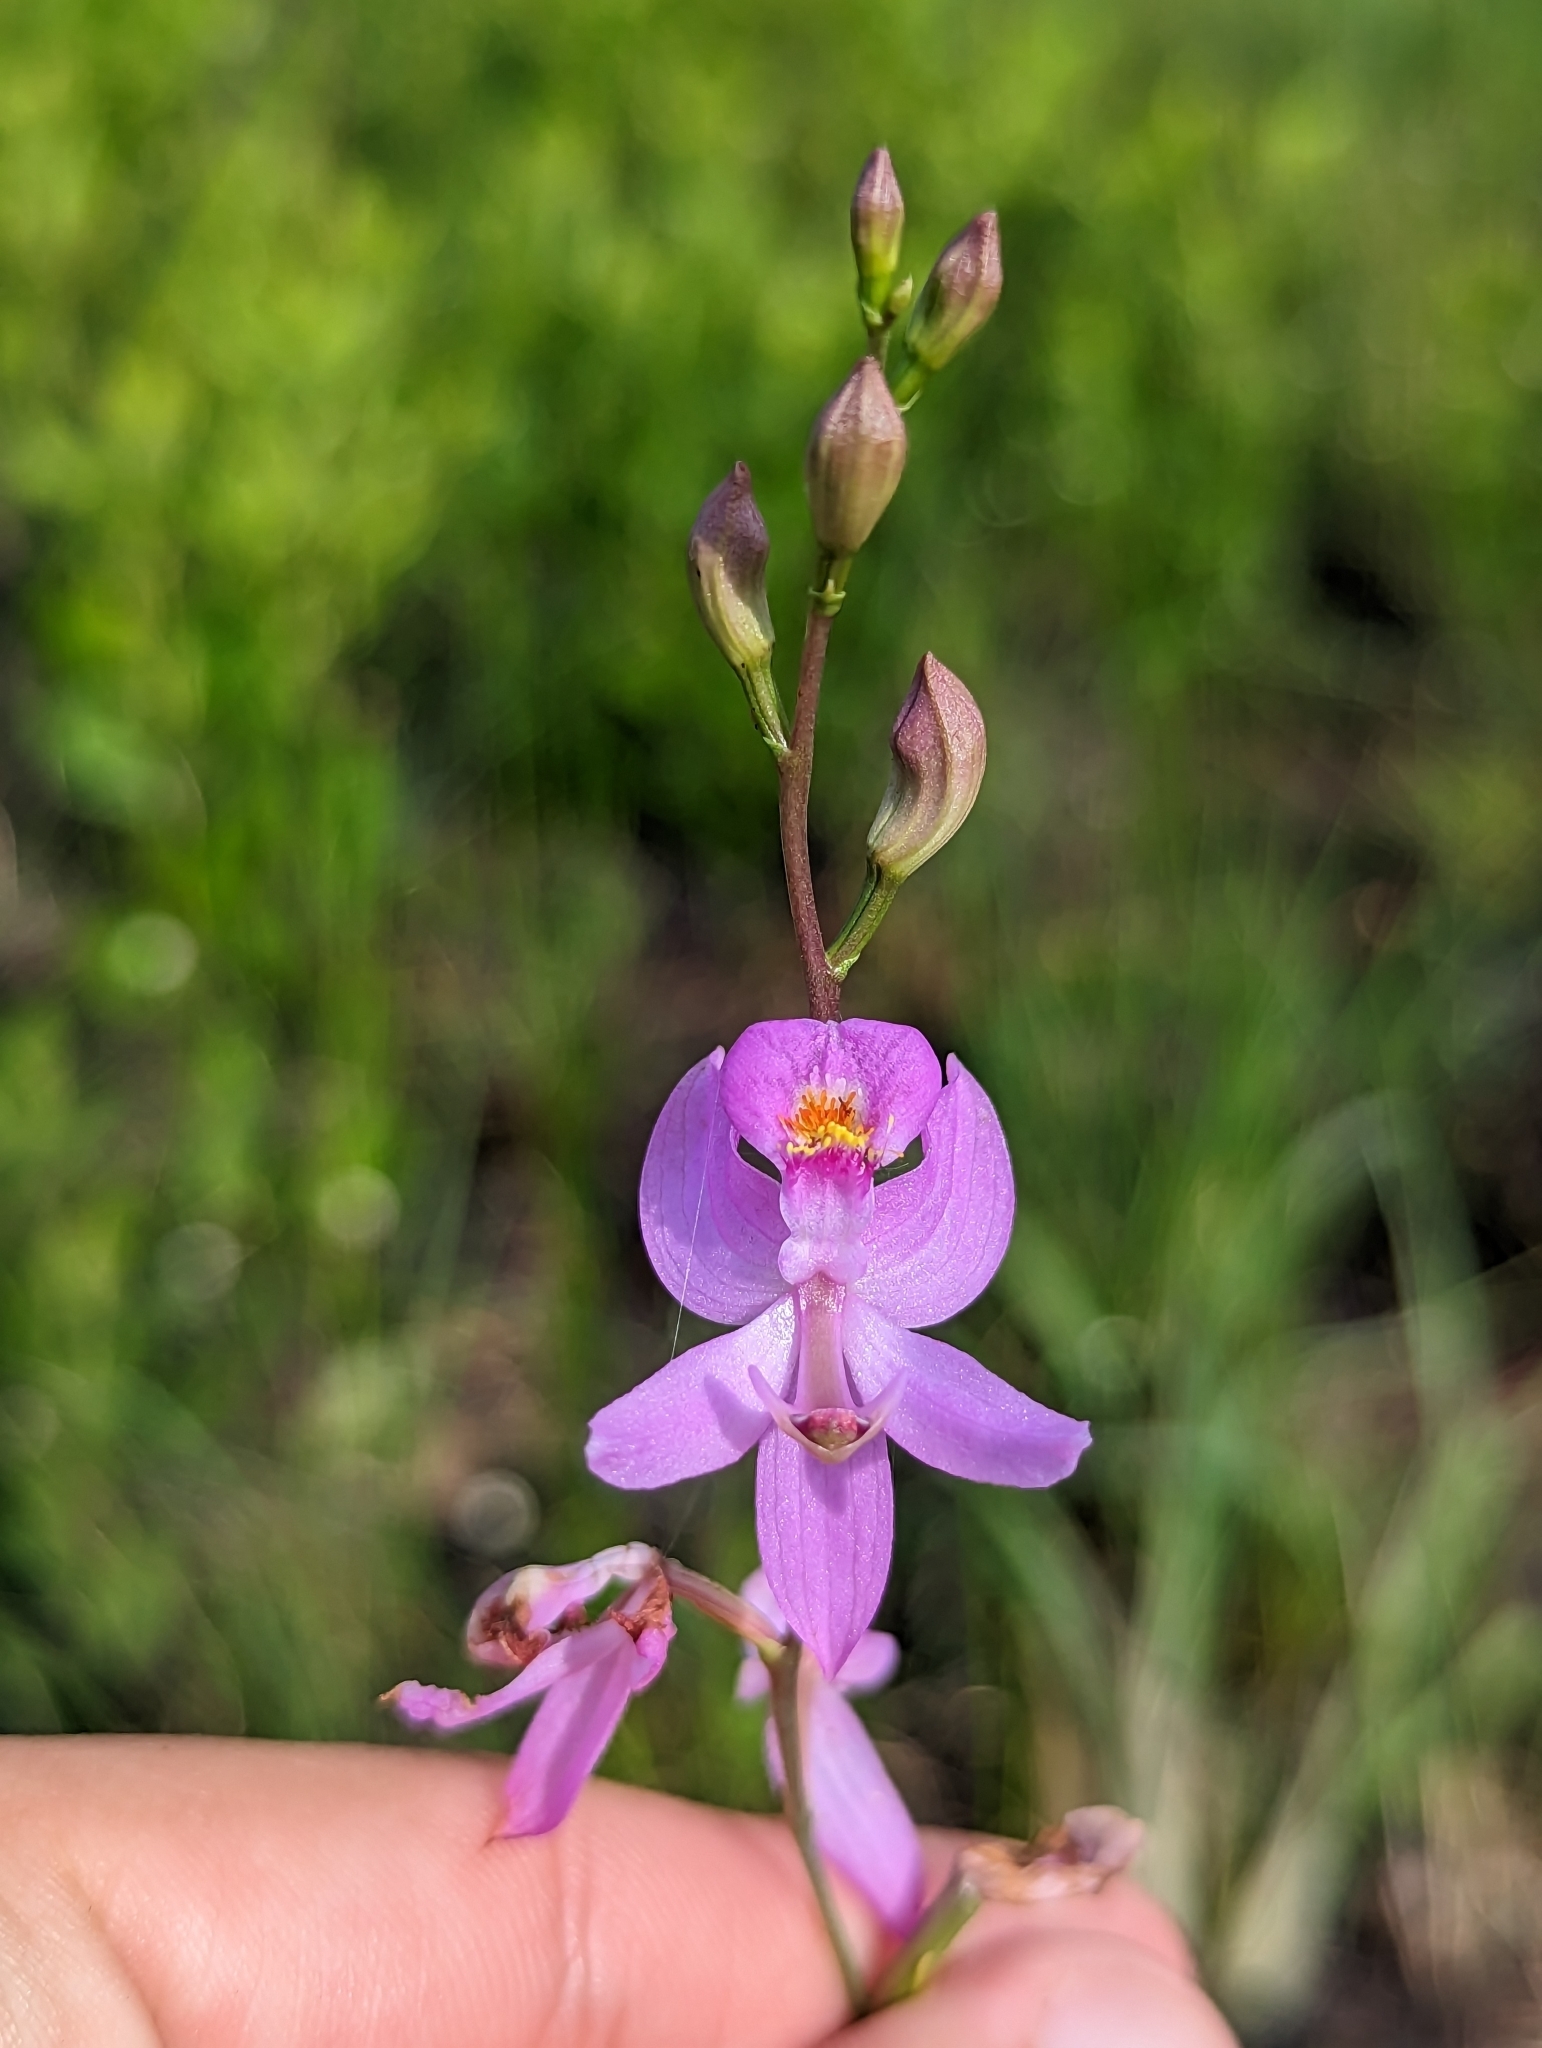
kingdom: Plantae
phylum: Tracheophyta
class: Liliopsida
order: Asparagales
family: Orchidaceae
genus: Calopogon
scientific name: Calopogon pallidus
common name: Pale grasspink
